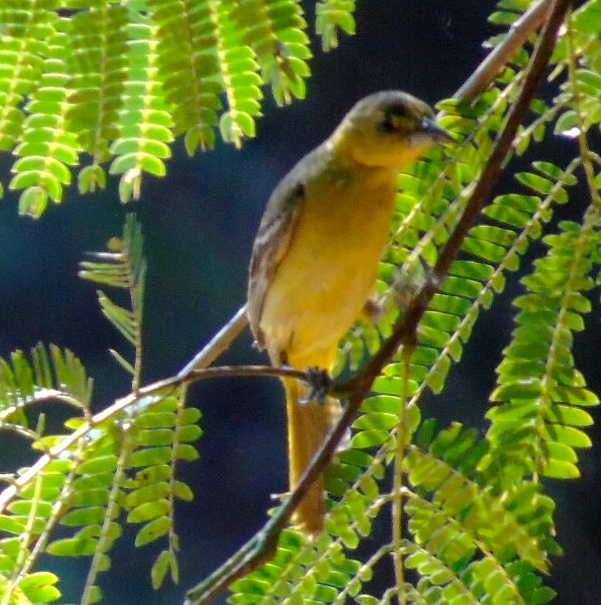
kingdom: Animalia
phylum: Chordata
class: Aves
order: Passeriformes
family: Icteridae
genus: Icterus
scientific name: Icterus
